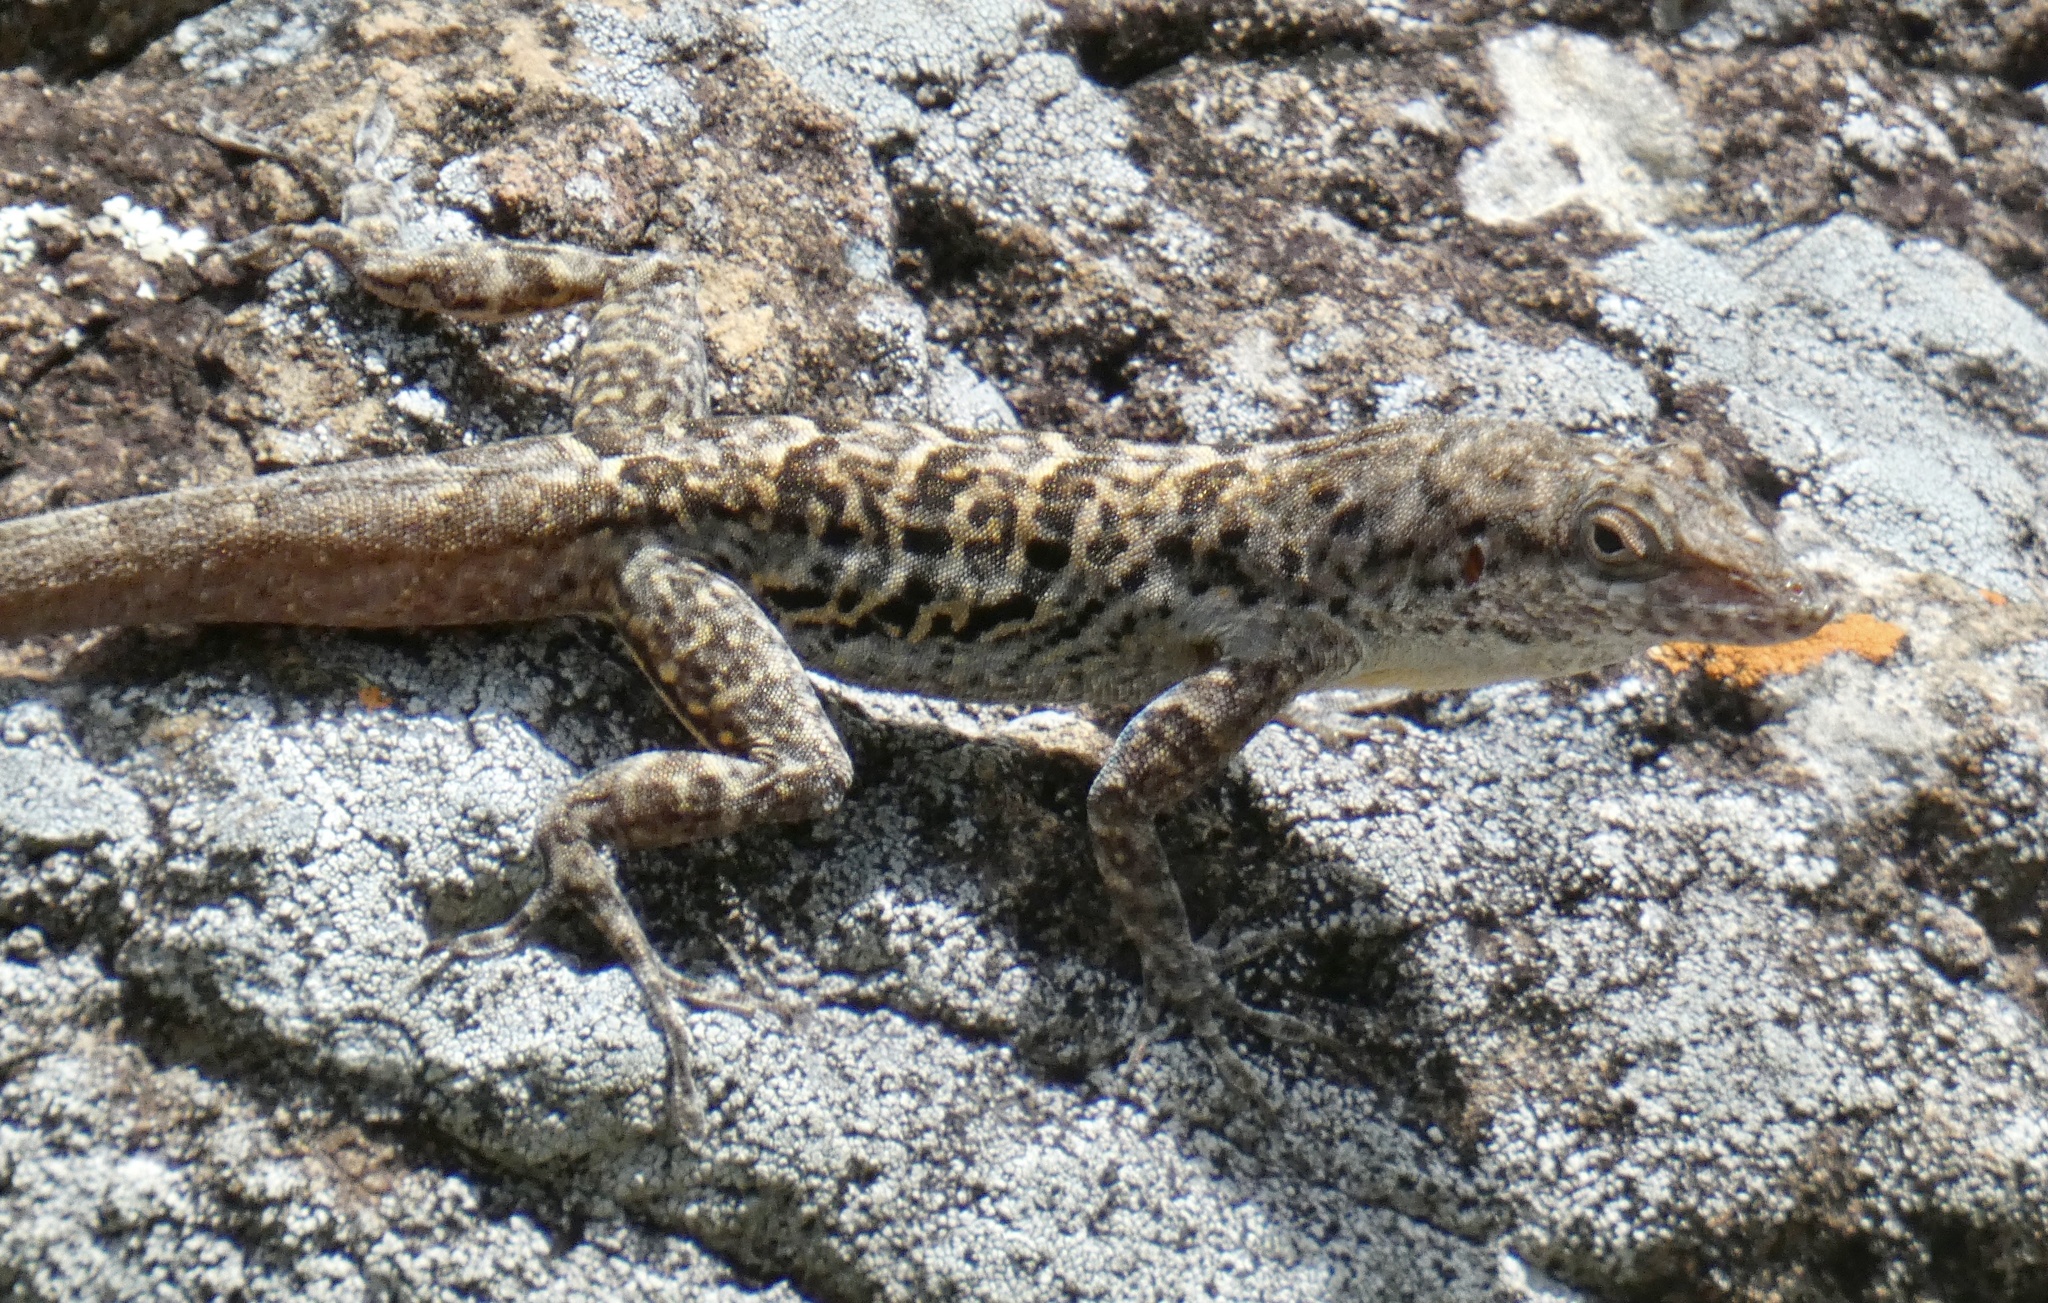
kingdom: Animalia
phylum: Chordata
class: Squamata
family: Dactyloidae
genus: Anolis
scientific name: Anolis bonairensis
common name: Ruthven's anole
